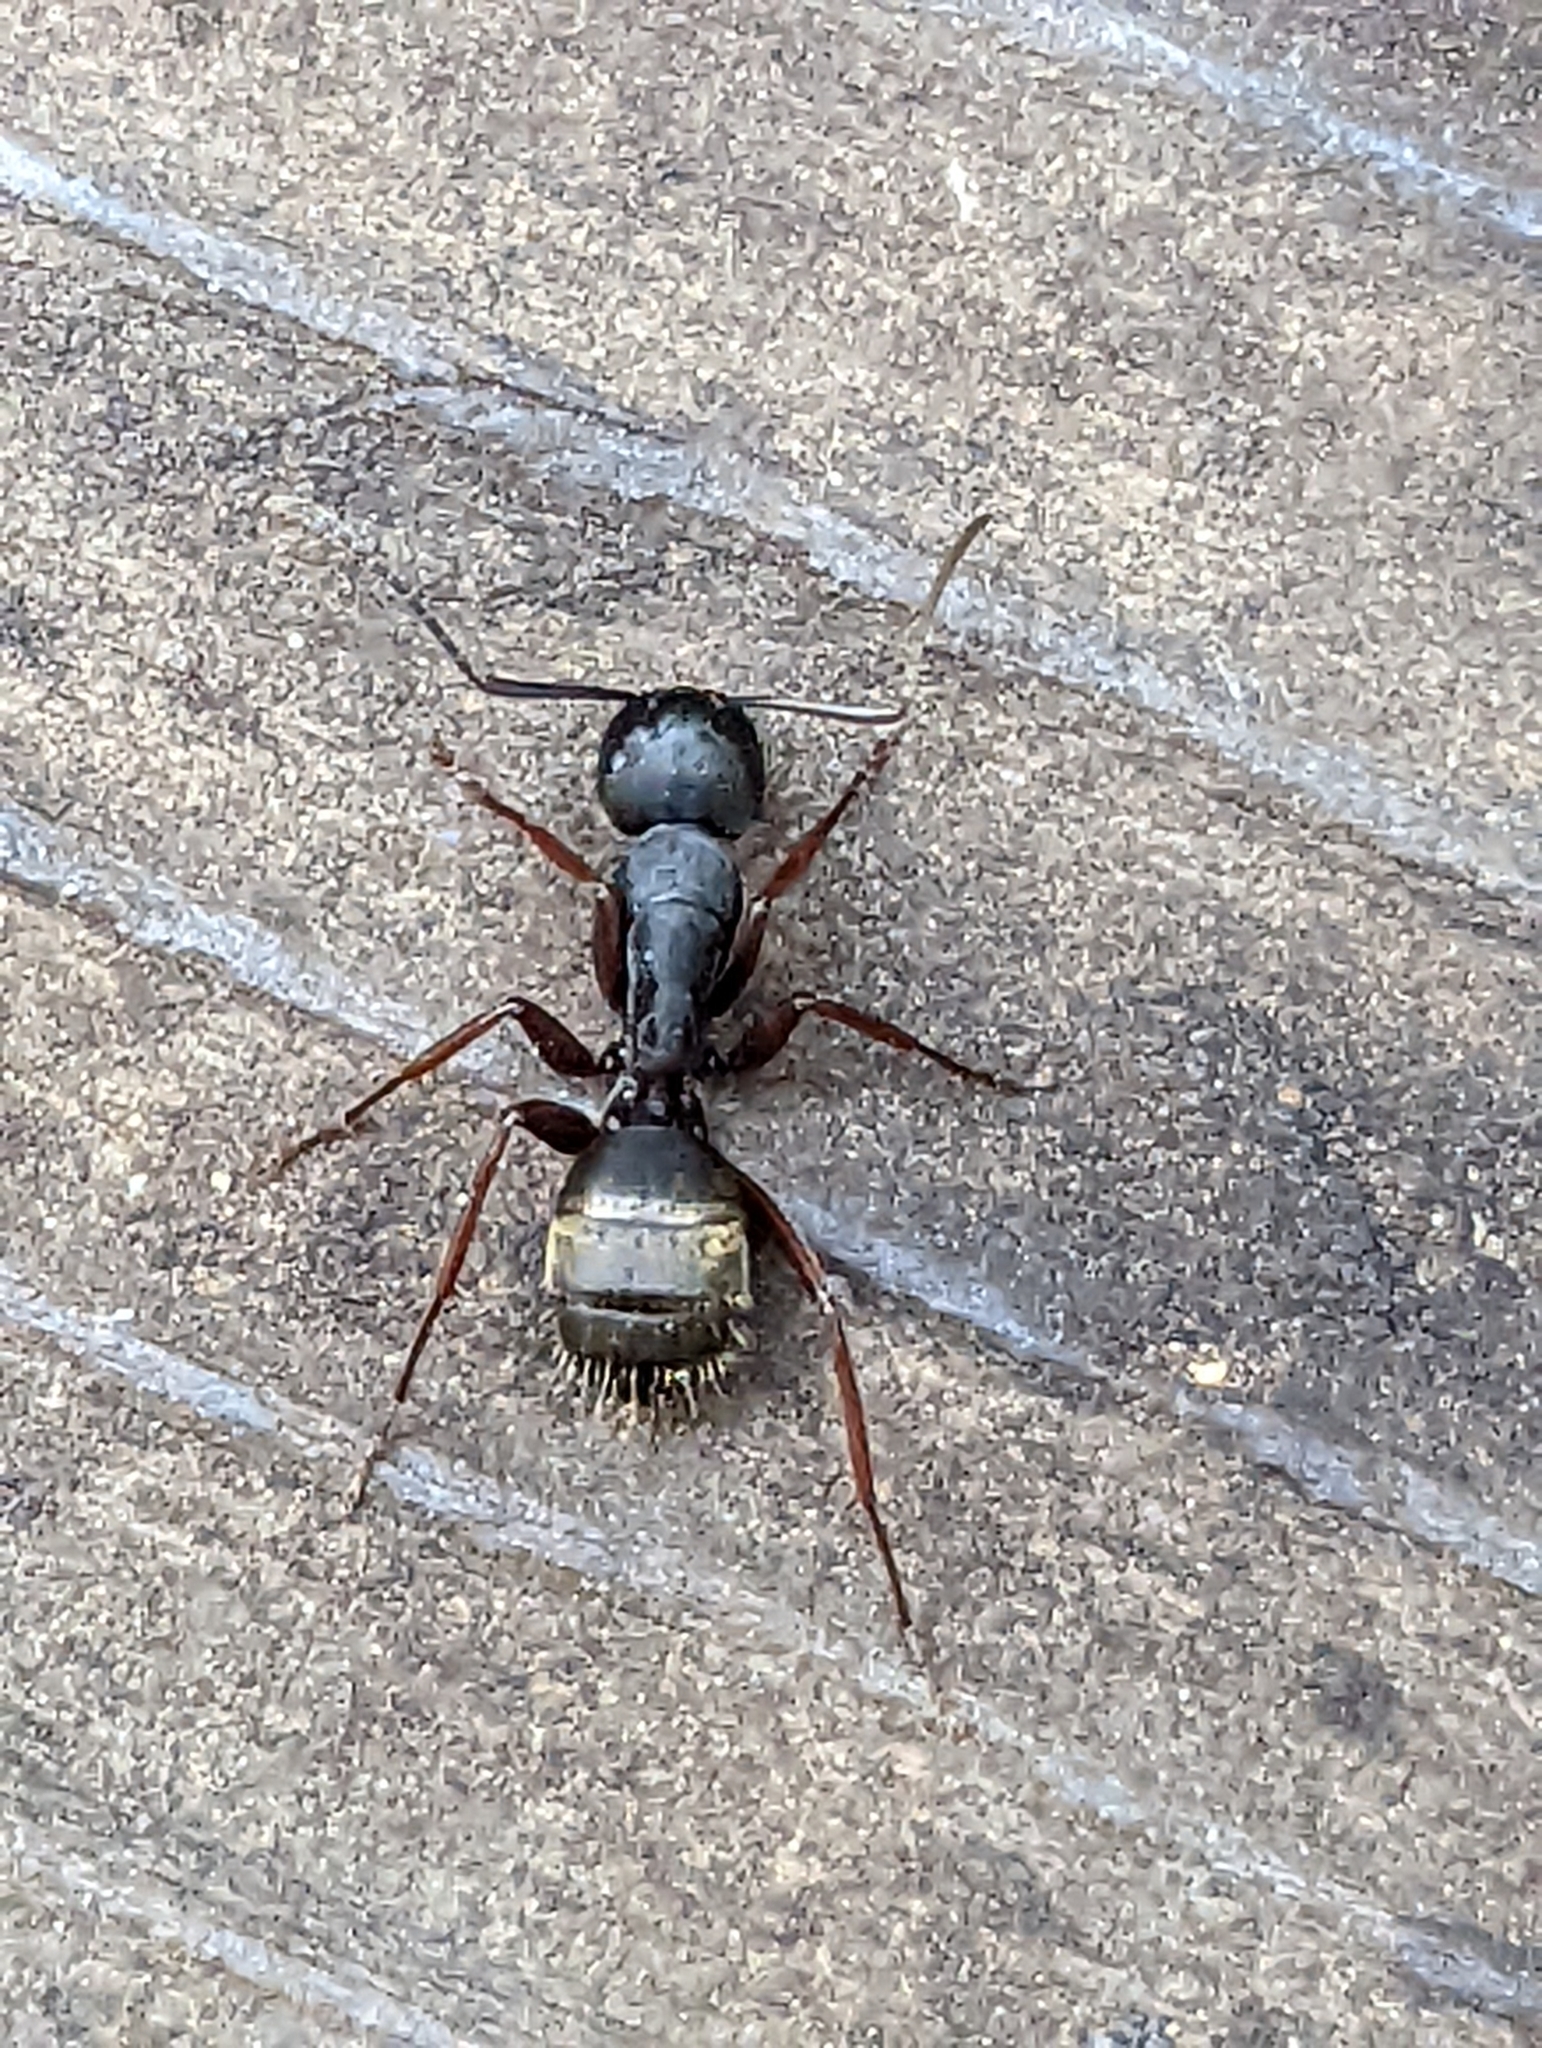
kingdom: Animalia
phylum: Arthropoda
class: Insecta
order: Hymenoptera
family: Formicidae
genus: Camponotus
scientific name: Camponotus modoc
